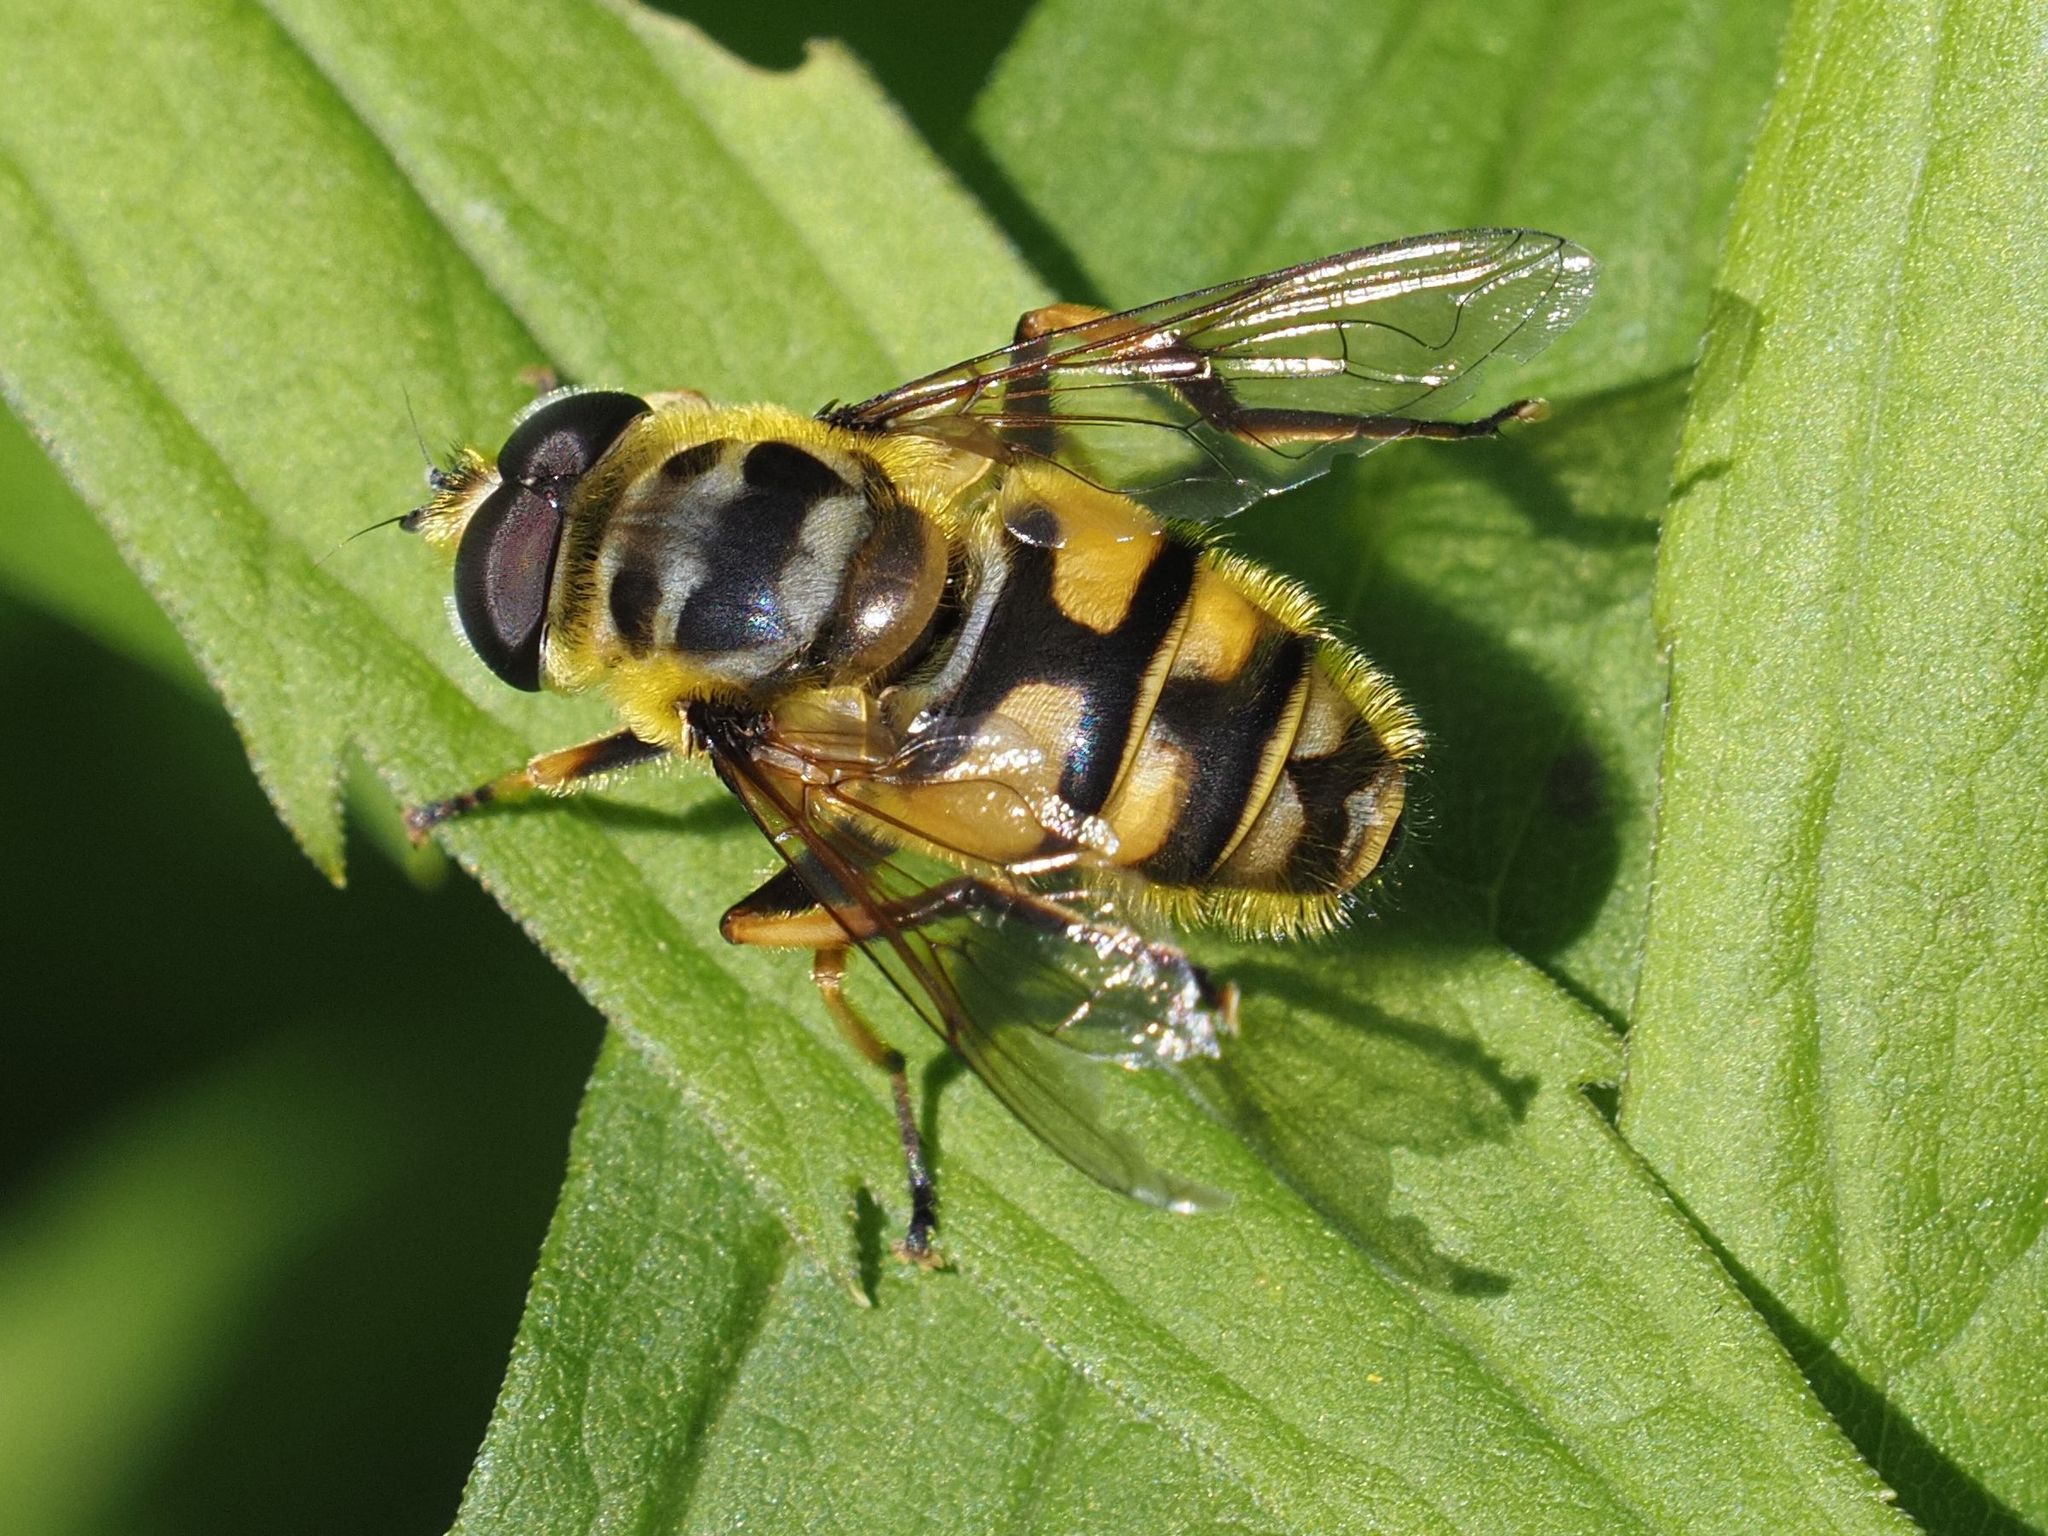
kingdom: Animalia
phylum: Arthropoda
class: Insecta
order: Diptera
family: Syrphidae
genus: Myathropa
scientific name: Myathropa florea
